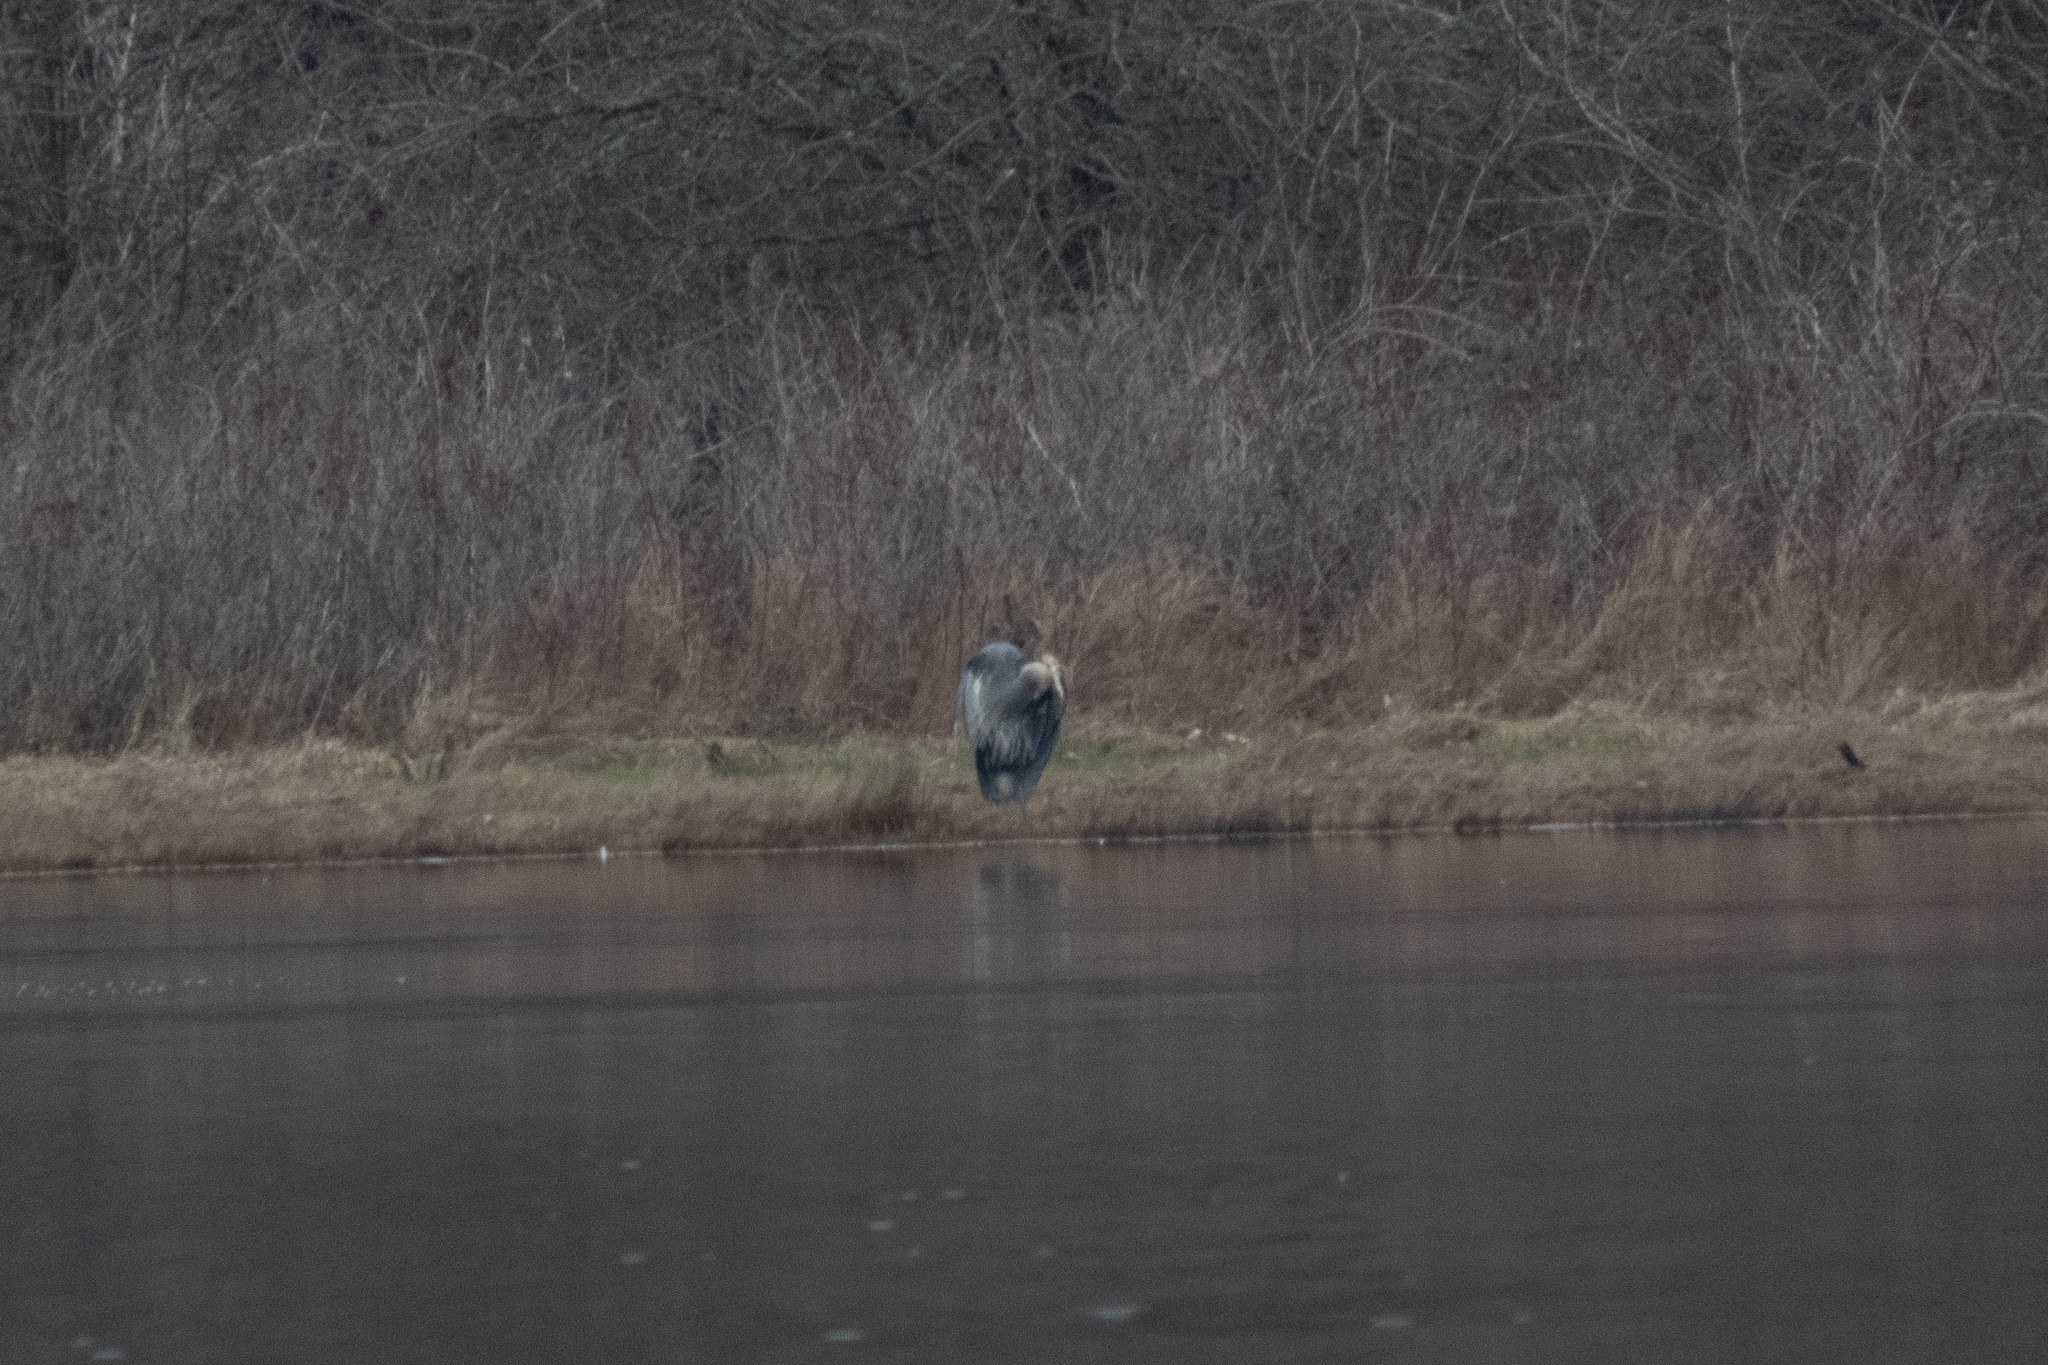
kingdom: Animalia
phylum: Chordata
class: Aves
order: Pelecaniformes
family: Ardeidae
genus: Ardea
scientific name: Ardea herodias
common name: Great blue heron
